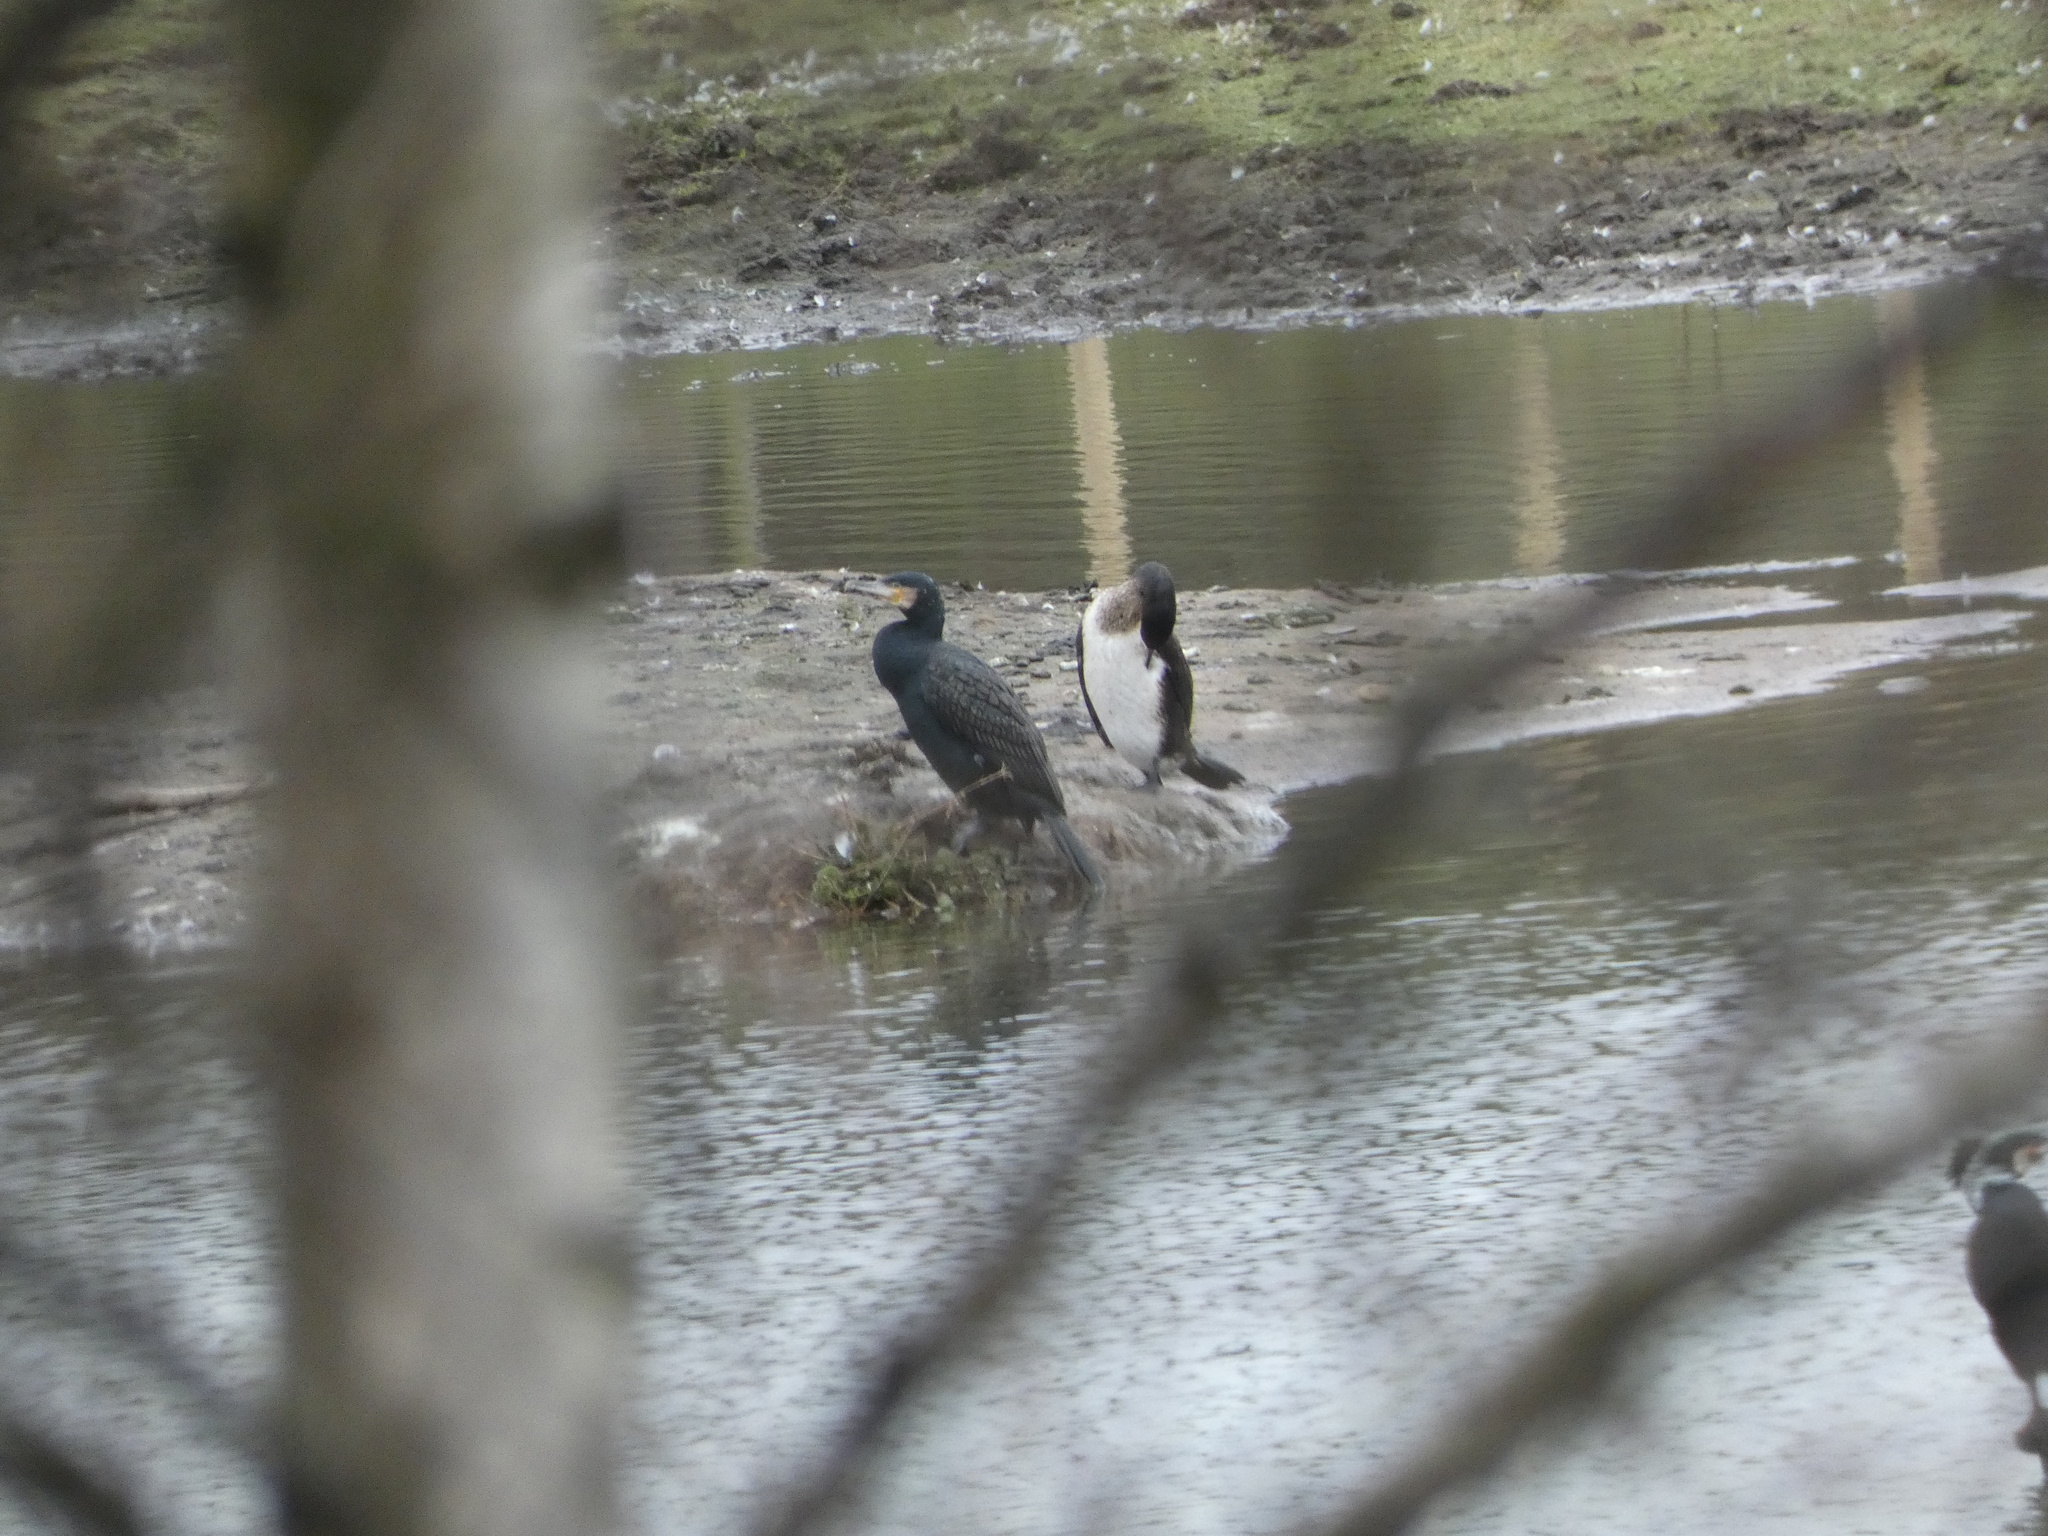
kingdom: Animalia
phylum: Chordata
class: Aves
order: Suliformes
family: Phalacrocoracidae
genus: Phalacrocorax
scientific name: Phalacrocorax carbo
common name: Great cormorant
